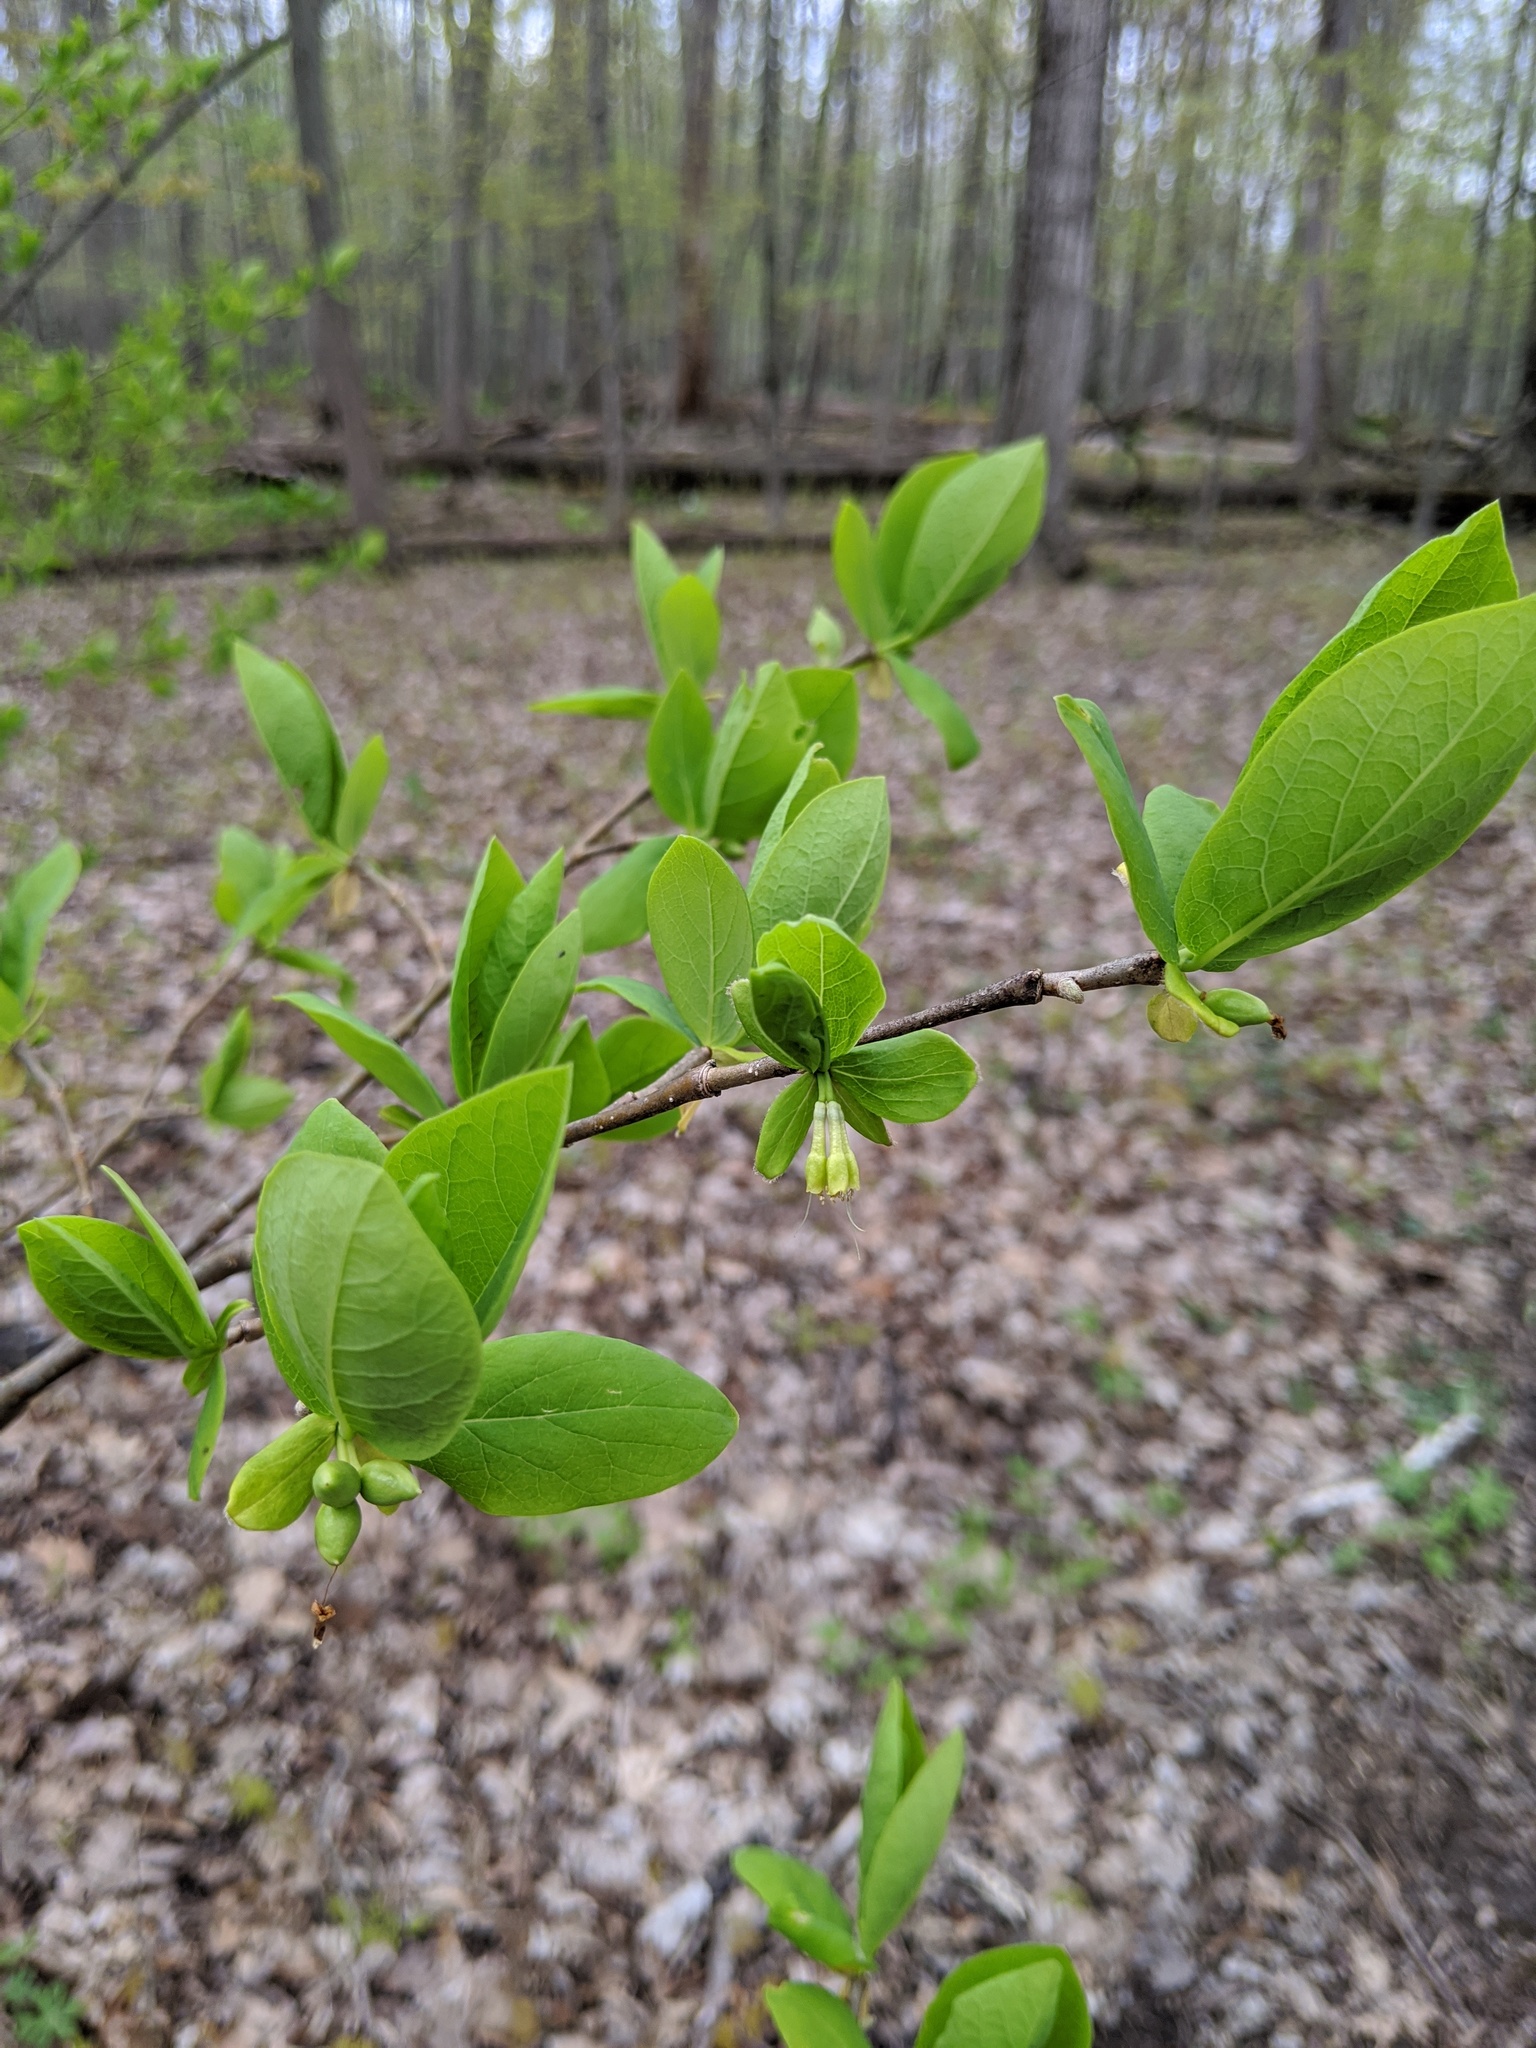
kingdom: Plantae
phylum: Tracheophyta
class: Magnoliopsida
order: Malvales
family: Thymelaeaceae
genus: Dirca
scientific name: Dirca palustris
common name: Leatherwood
